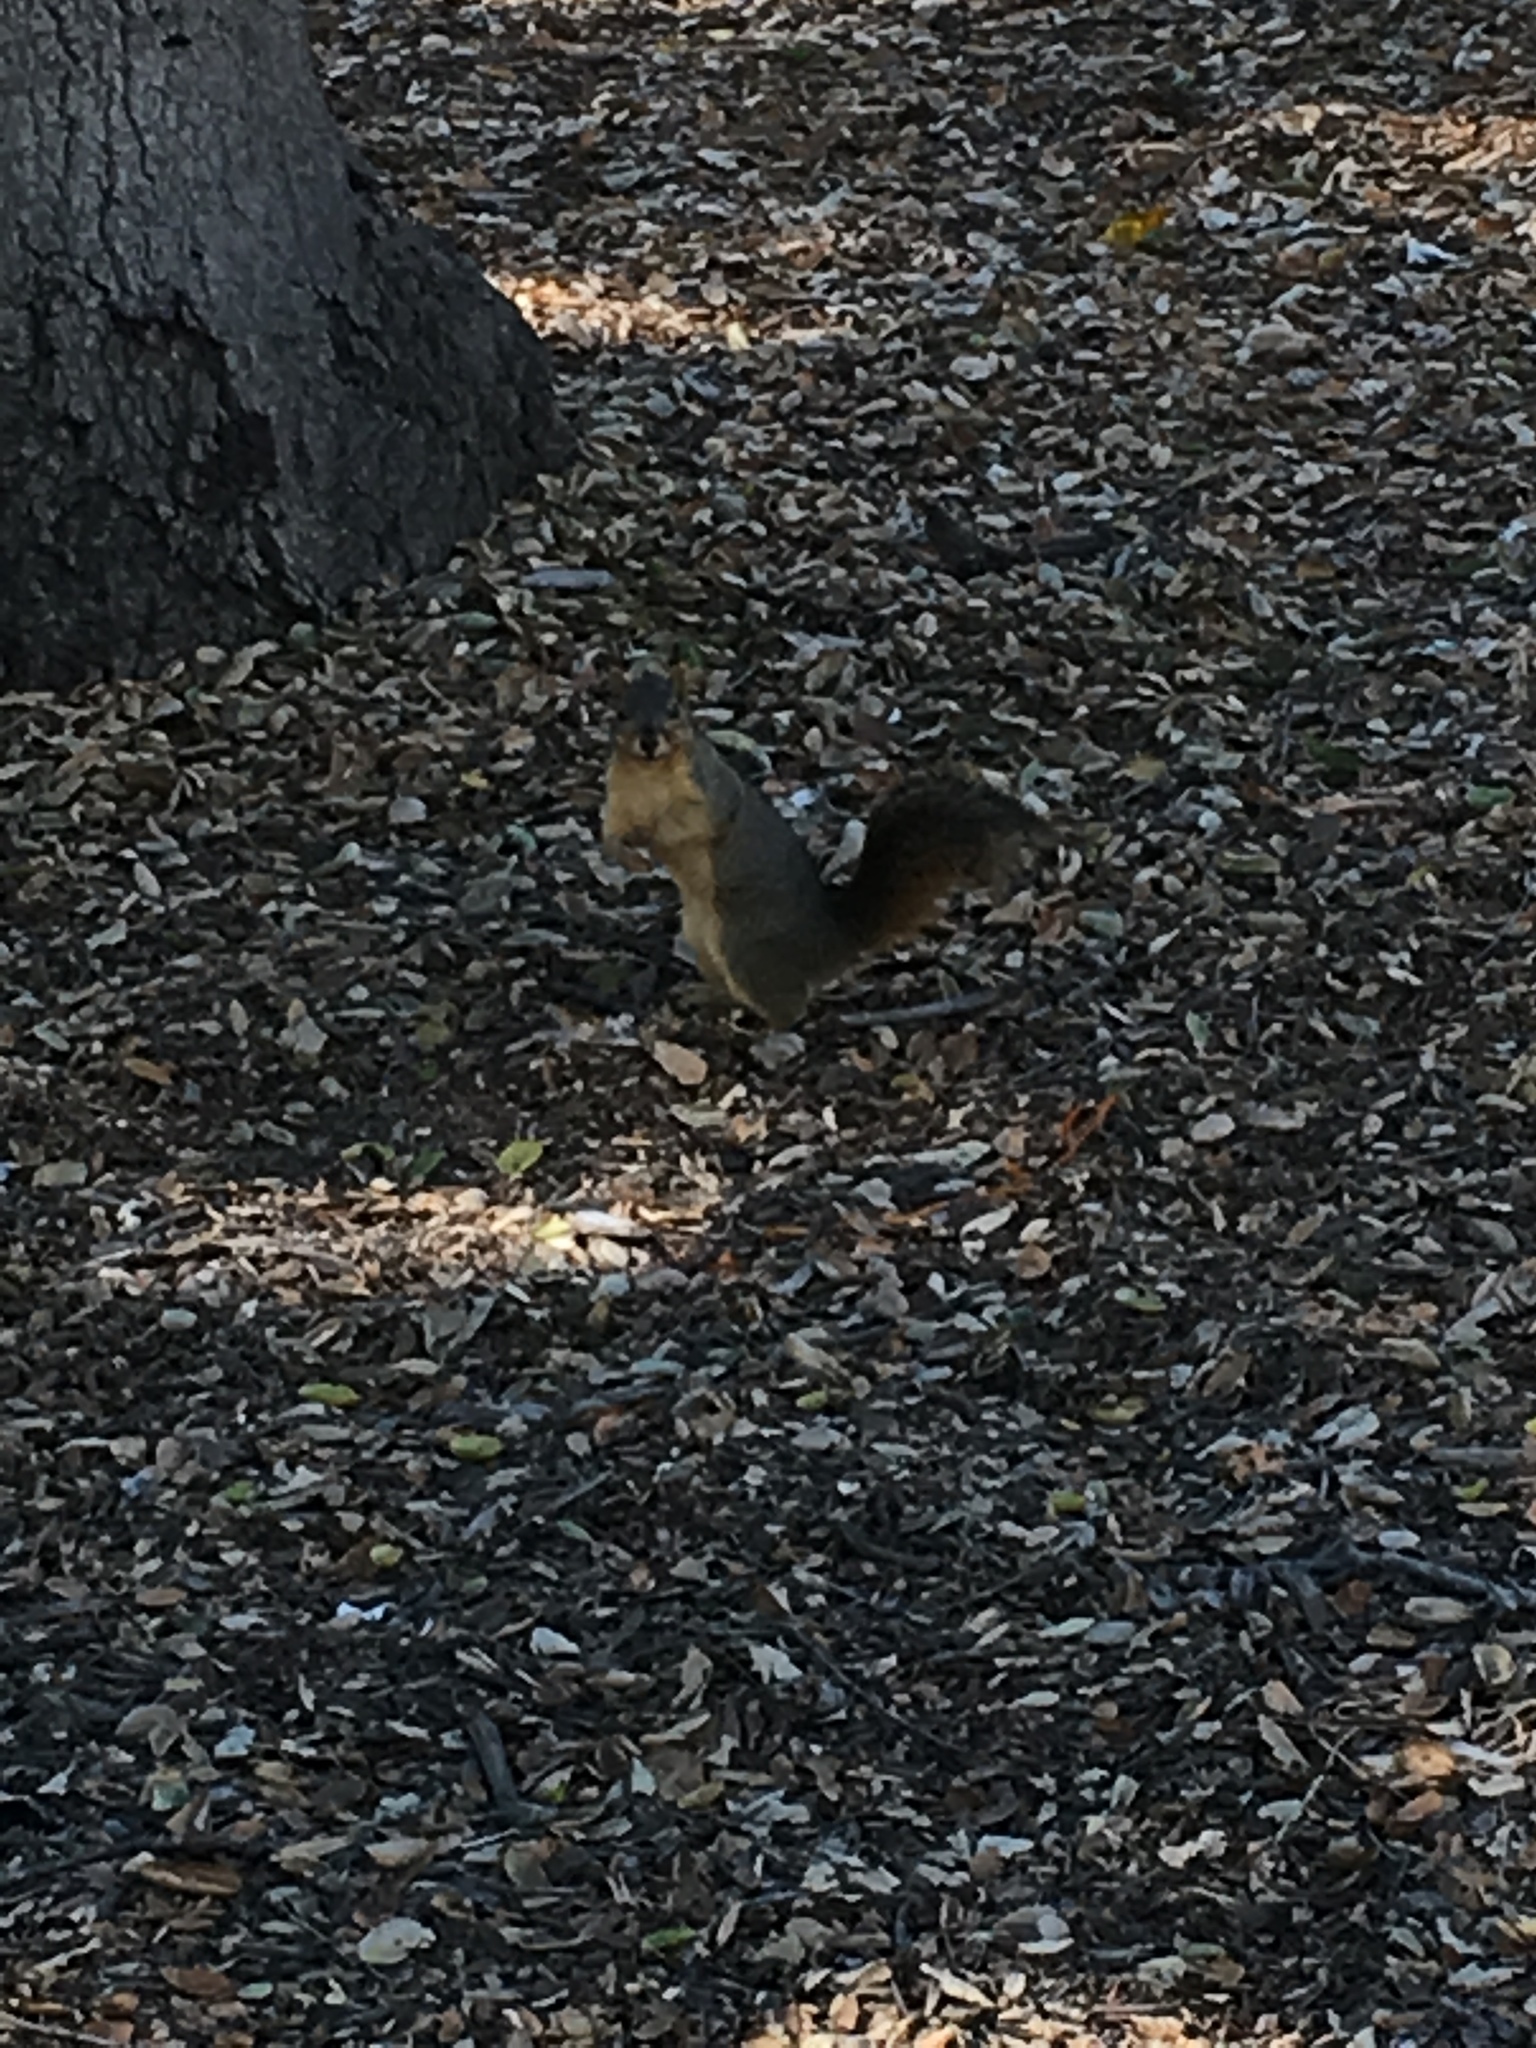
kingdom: Animalia
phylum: Chordata
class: Mammalia
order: Rodentia
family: Sciuridae
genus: Sciurus
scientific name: Sciurus niger
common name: Fox squirrel
